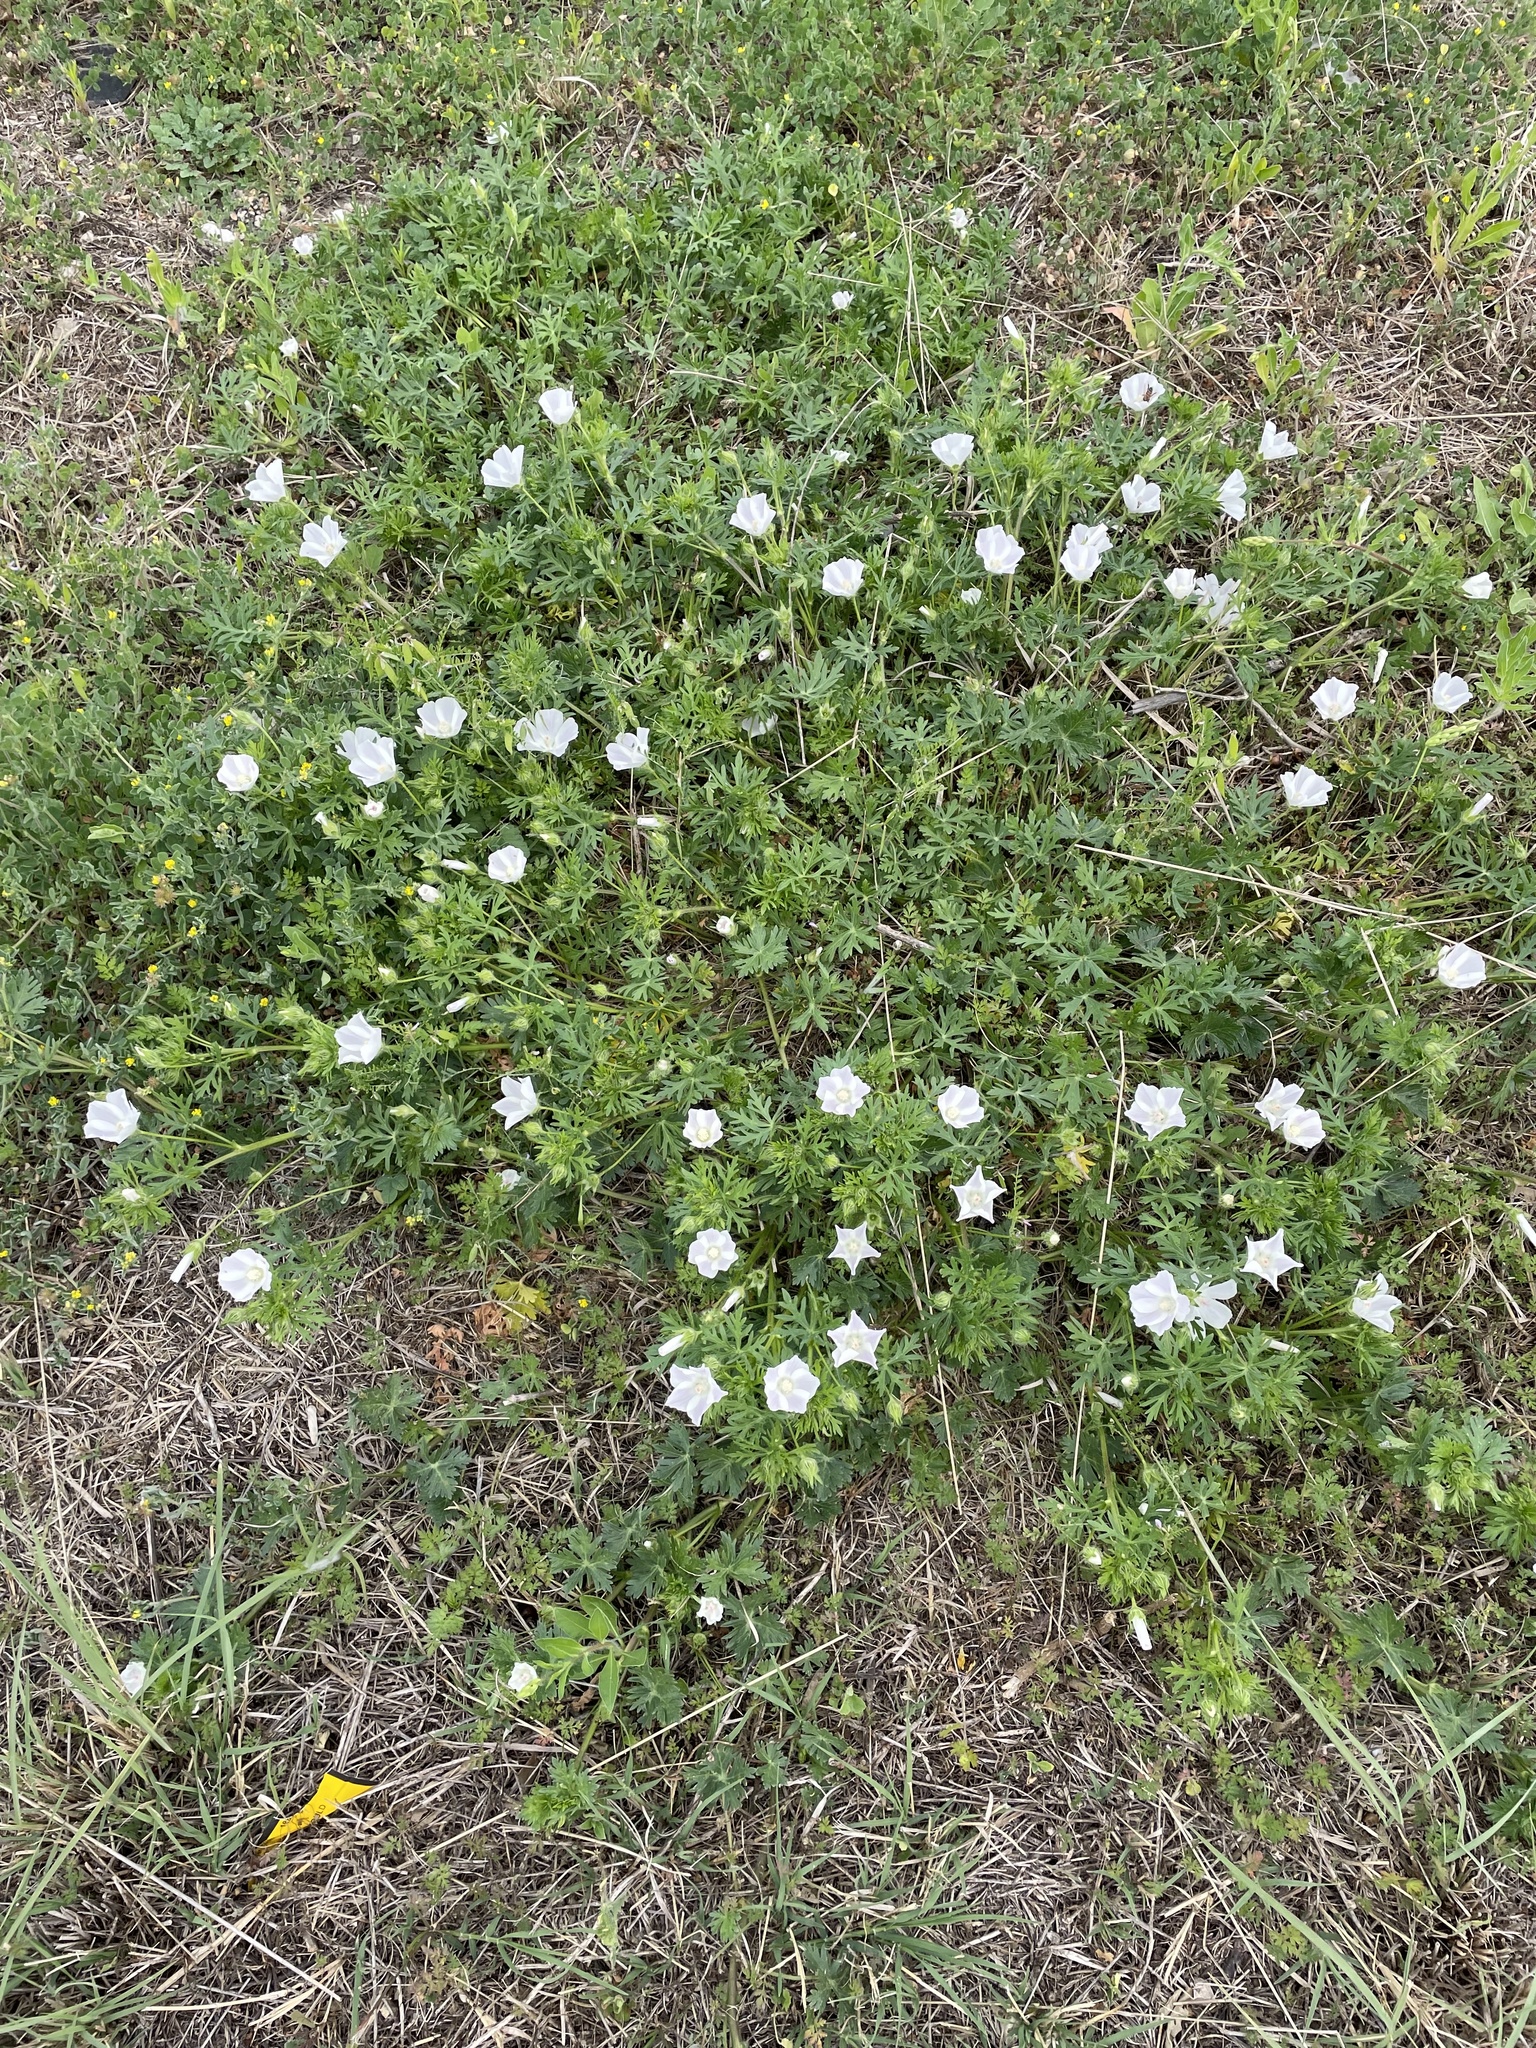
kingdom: Plantae
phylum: Tracheophyta
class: Magnoliopsida
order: Malvales
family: Malvaceae
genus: Callirhoe
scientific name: Callirhoe involucrata
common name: Purple poppy-mallow
